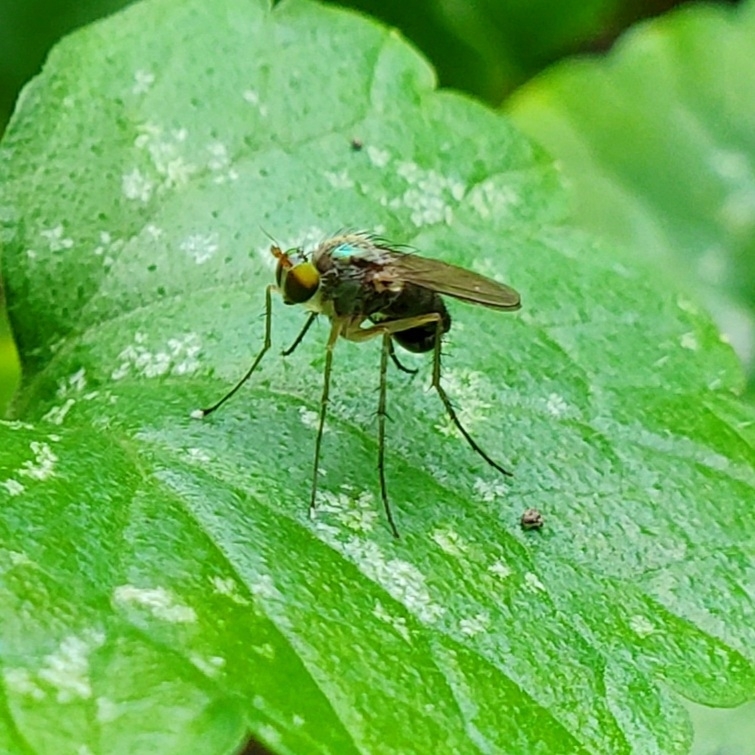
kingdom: Animalia
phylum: Arthropoda
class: Insecta
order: Diptera
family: Dolichopodidae
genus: Dolichopus
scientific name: Dolichopus funditor
